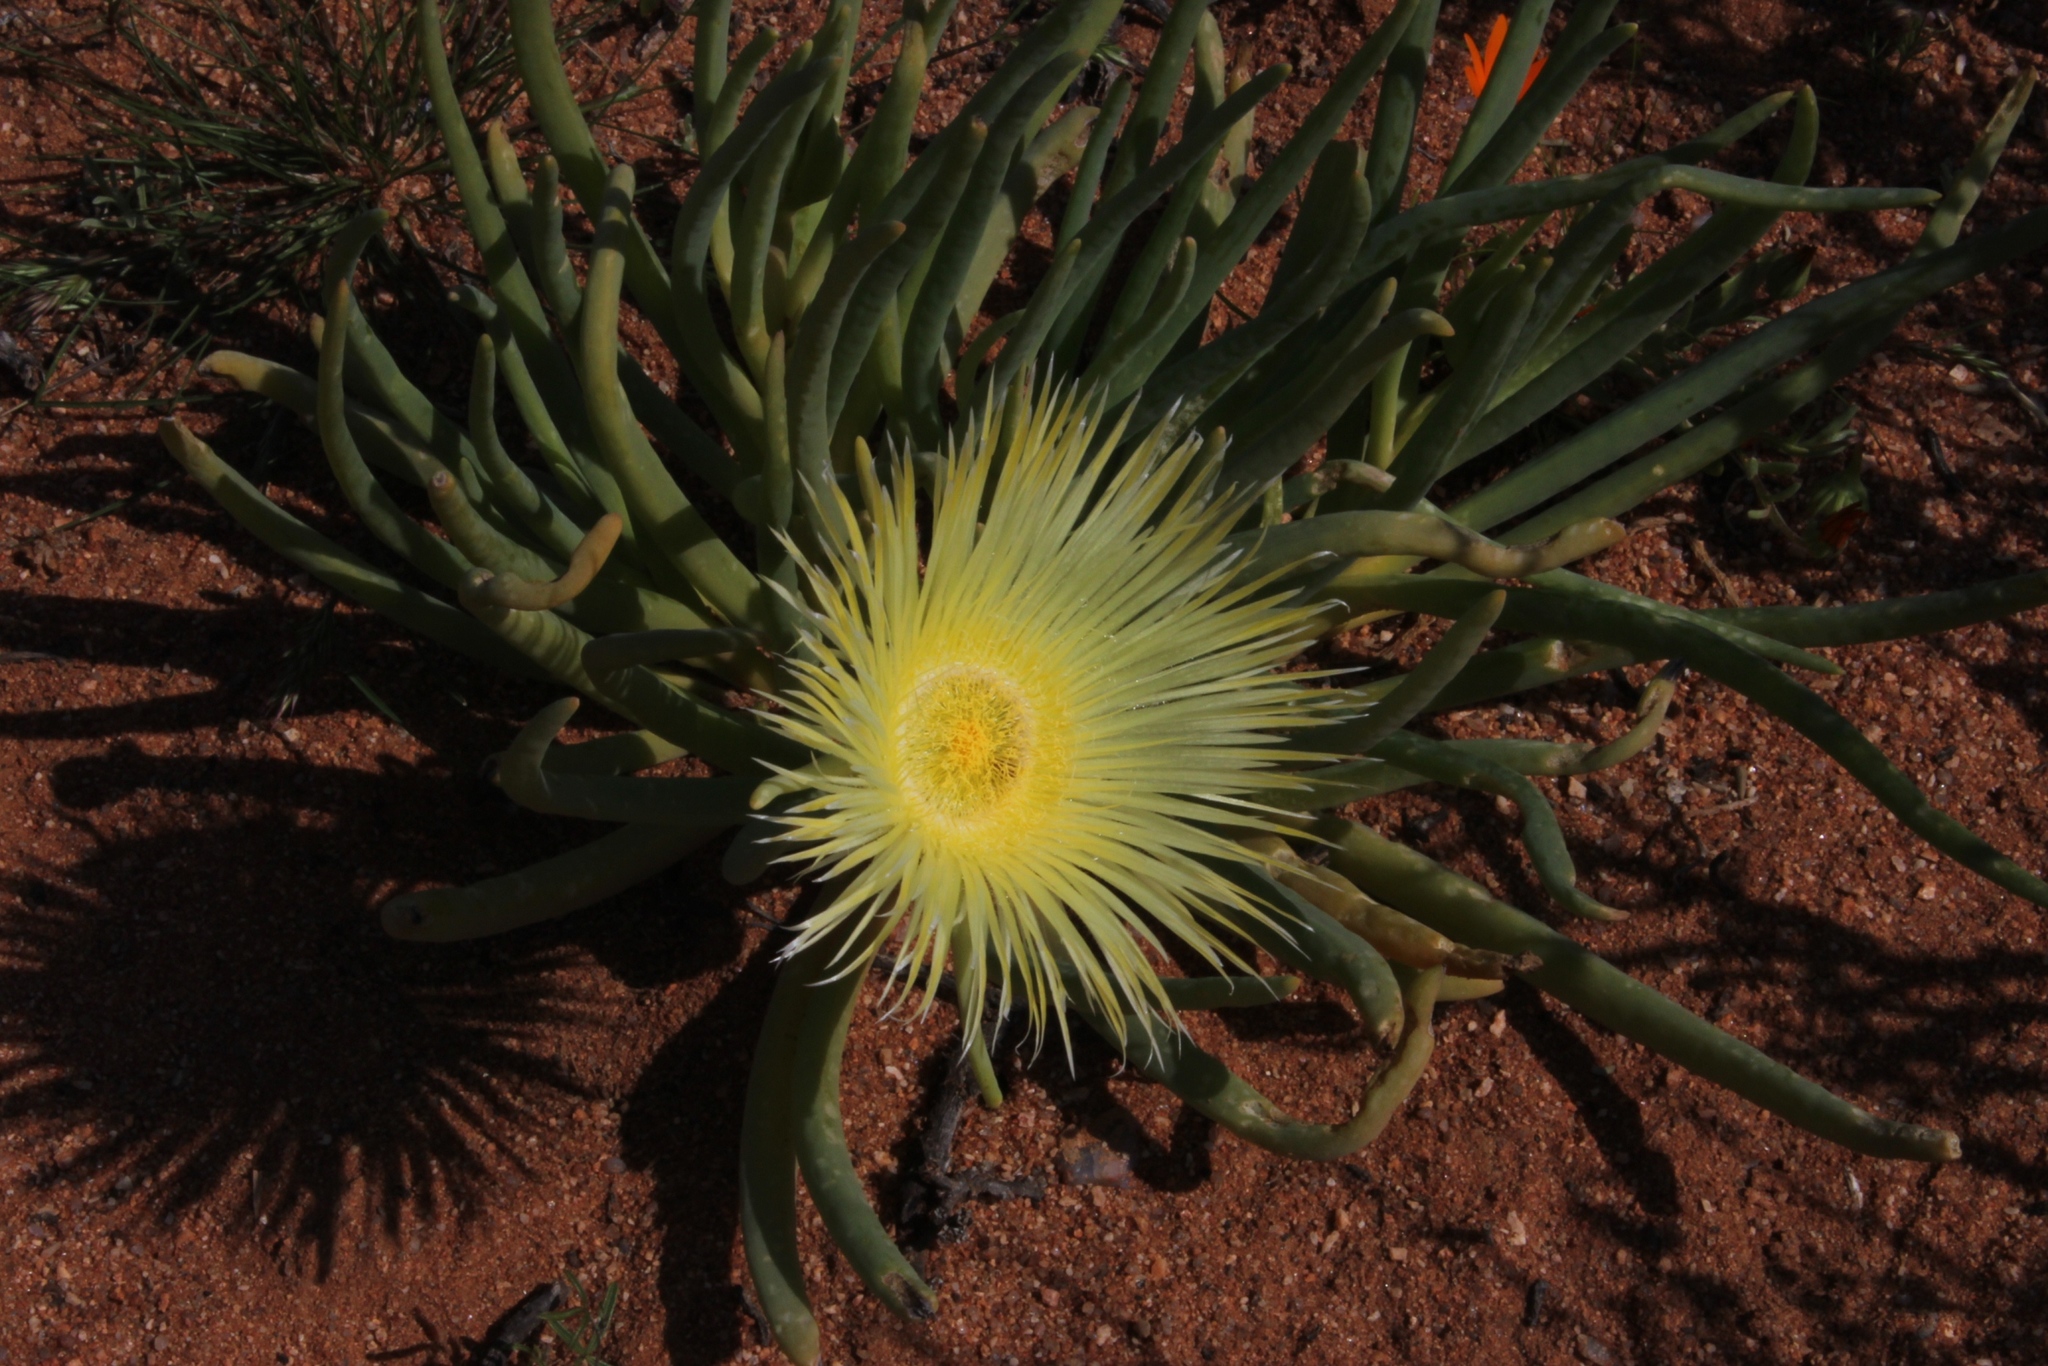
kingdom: Plantae
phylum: Tracheophyta
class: Magnoliopsida
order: Caryophyllales
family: Aizoaceae
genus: Conicosia
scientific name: Conicosia elongata
